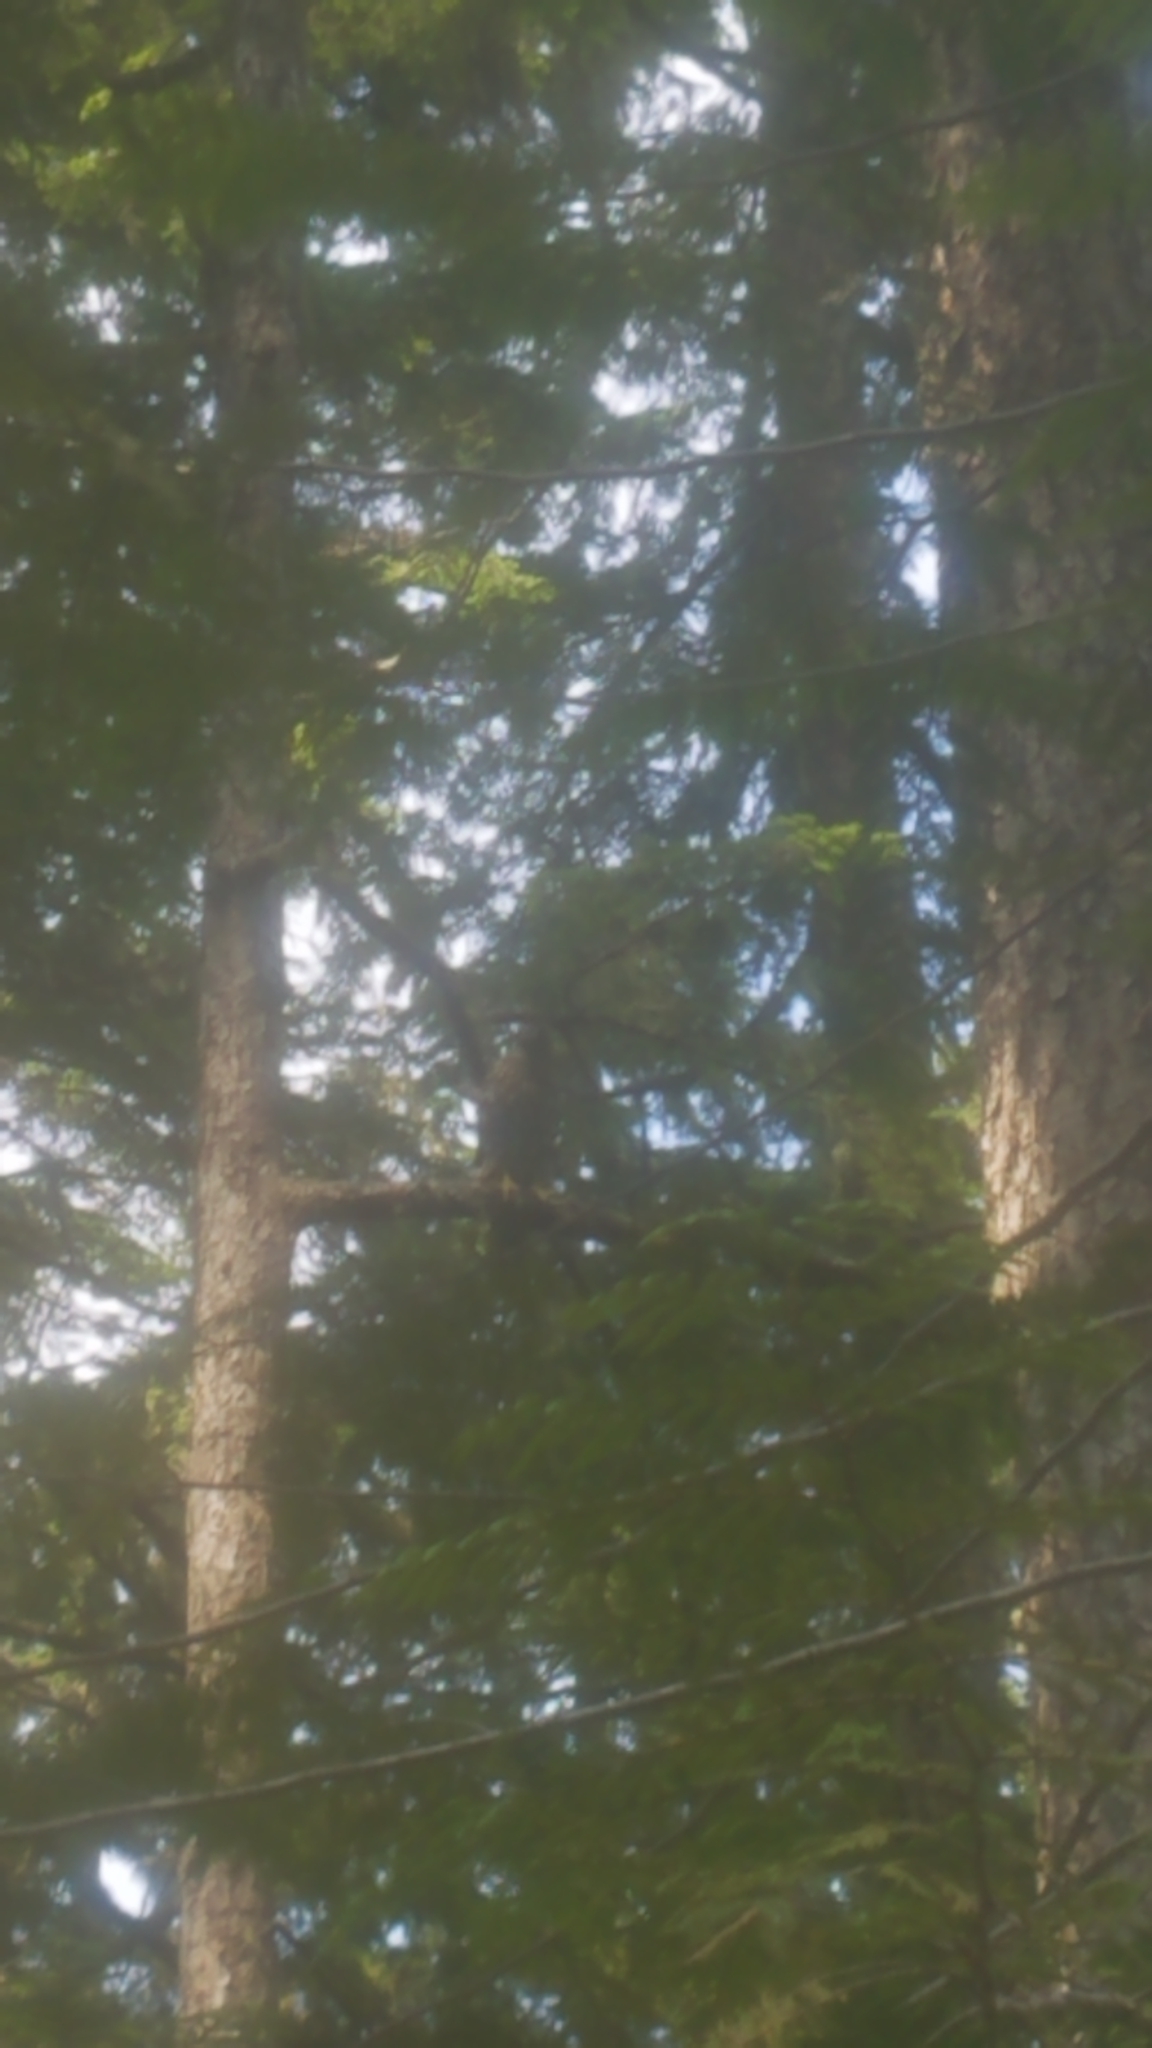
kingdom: Animalia
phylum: Chordata
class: Aves
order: Accipitriformes
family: Accipitridae
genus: Accipiter
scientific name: Accipiter gentilis
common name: Northern goshawk
